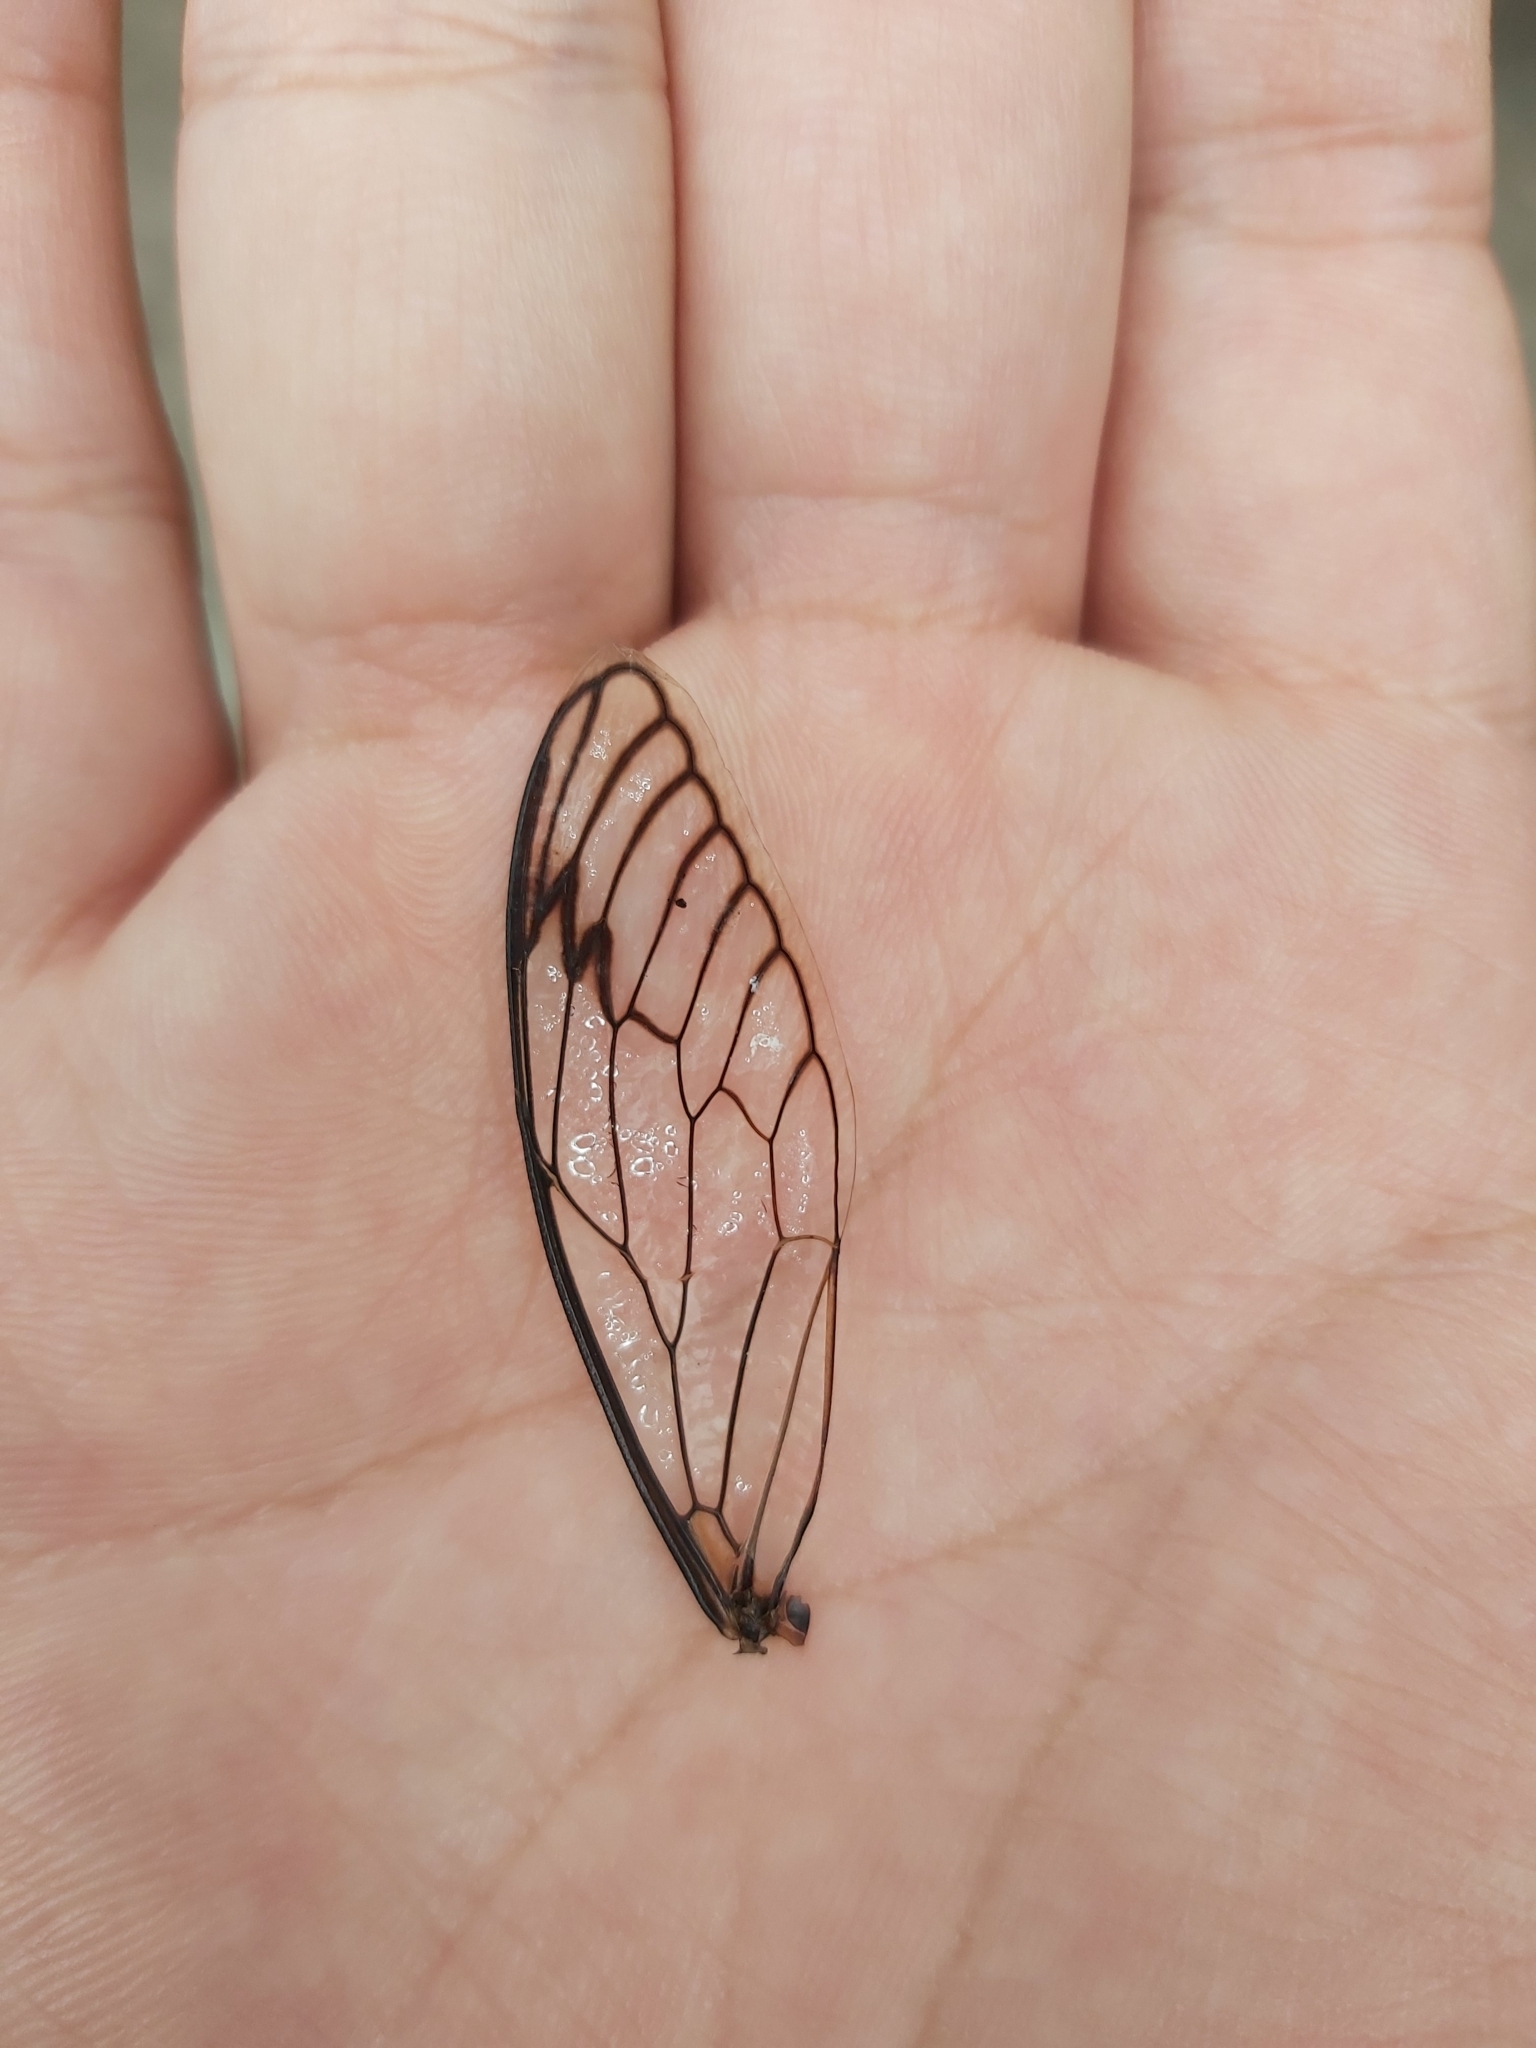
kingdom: Animalia
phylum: Arthropoda
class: Insecta
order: Hemiptera
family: Cicadidae
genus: Psaltoda
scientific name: Psaltoda moerens
